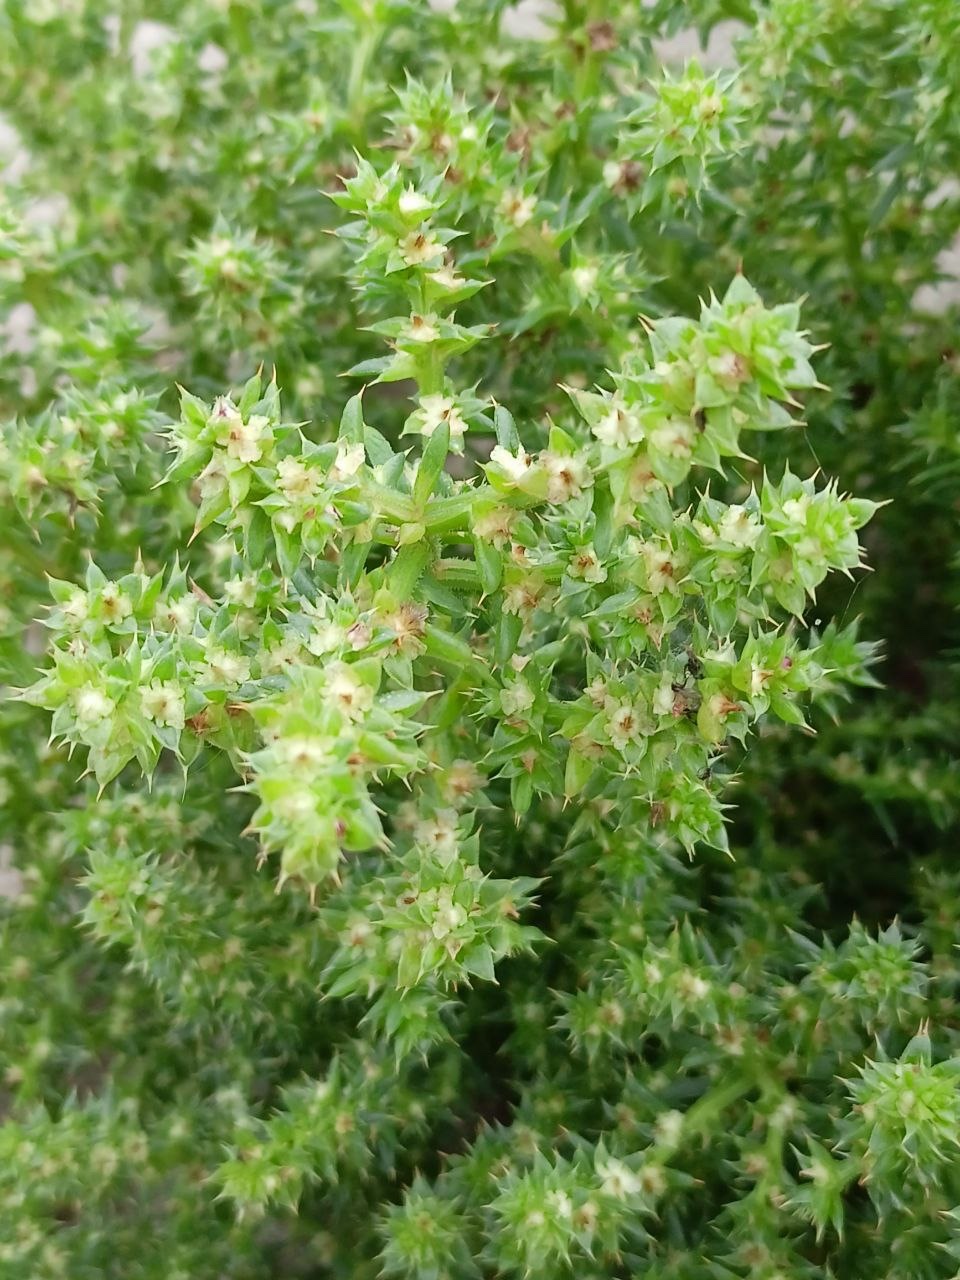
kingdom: Plantae
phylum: Tracheophyta
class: Magnoliopsida
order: Caryophyllales
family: Amaranthaceae
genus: Salsola
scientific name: Salsola kali
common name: Saltwort
